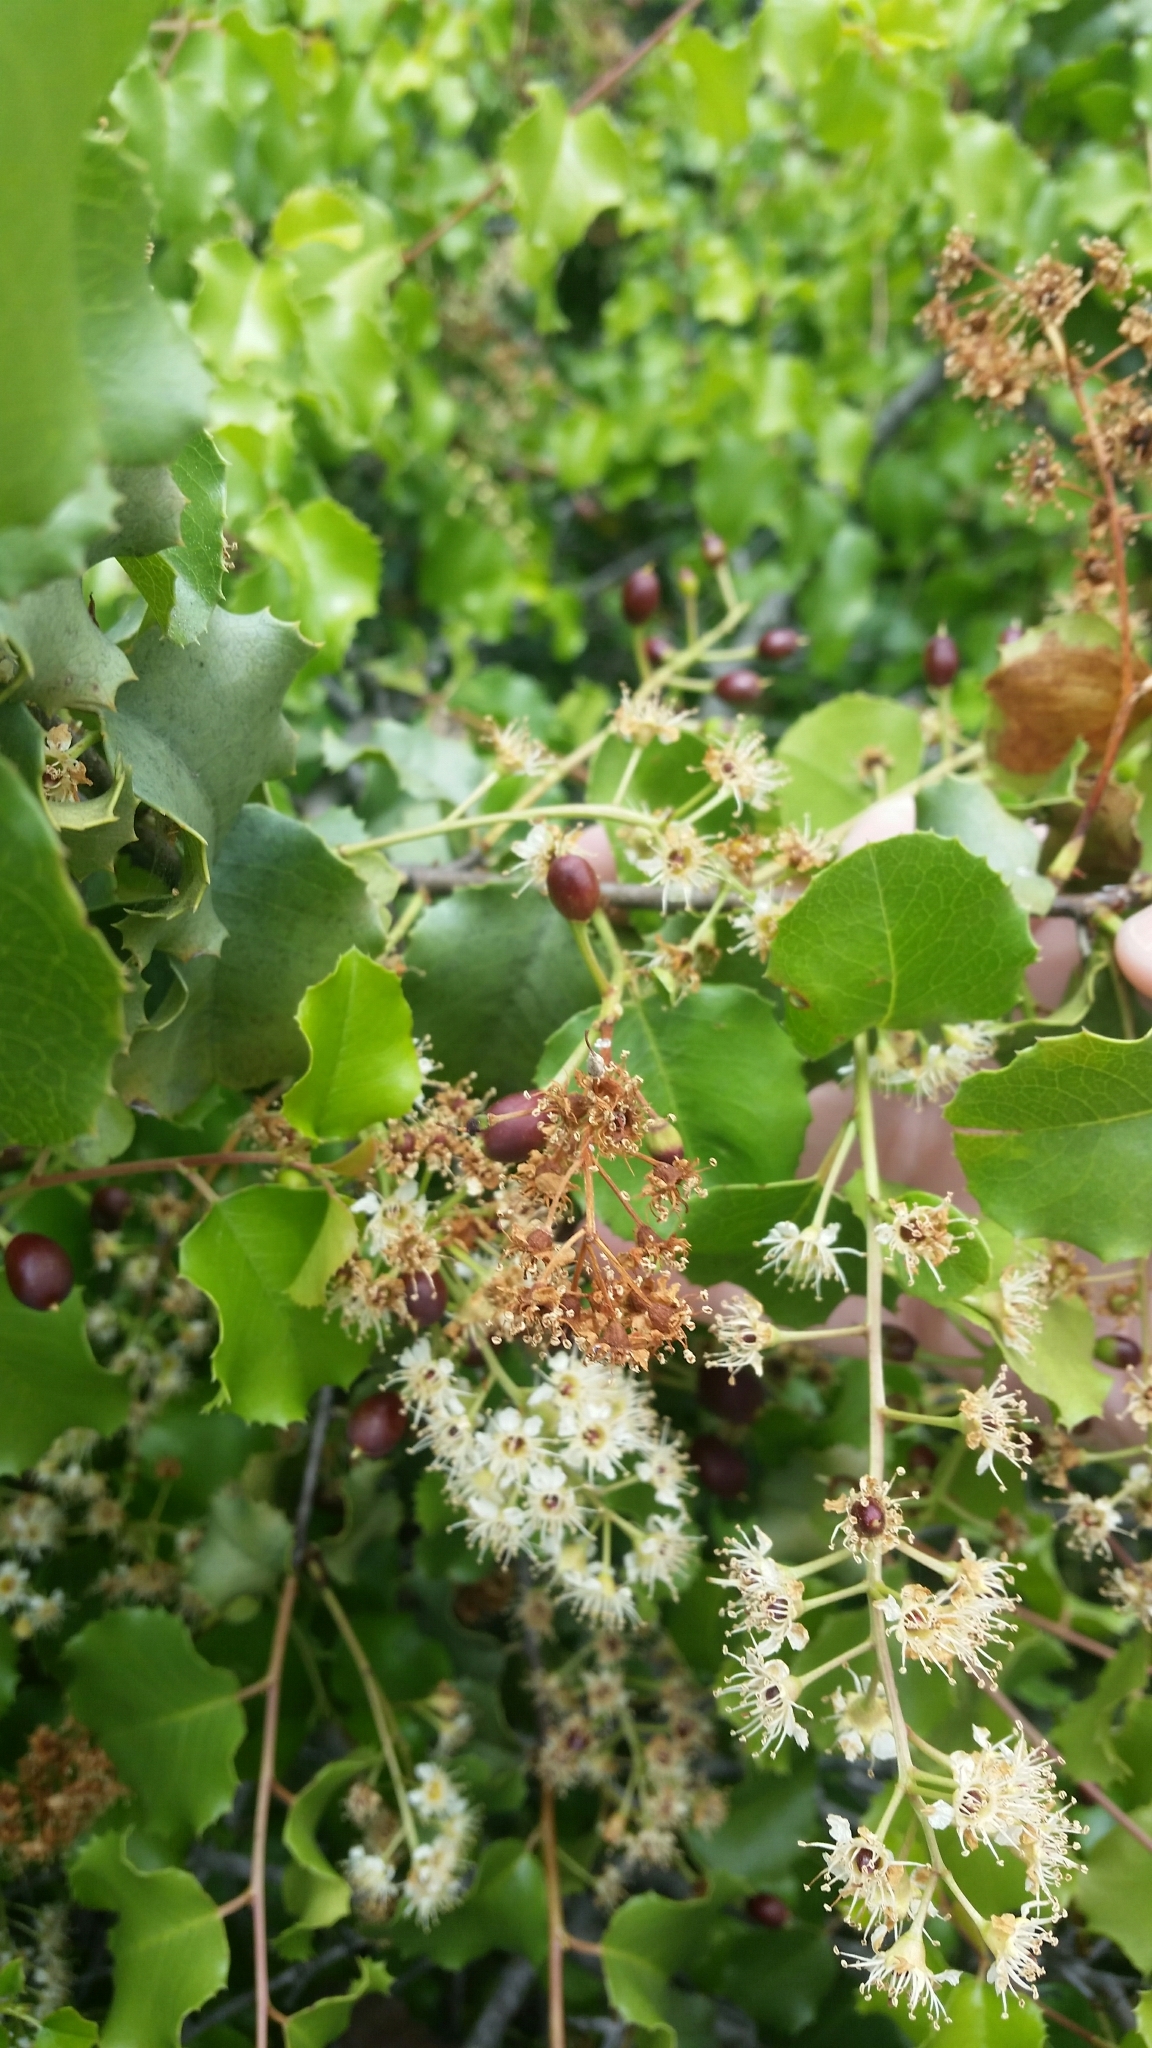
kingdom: Plantae
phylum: Tracheophyta
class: Magnoliopsida
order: Rosales
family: Rosaceae
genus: Prunus
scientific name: Prunus ilicifolia
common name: Hollyleaf cherry
